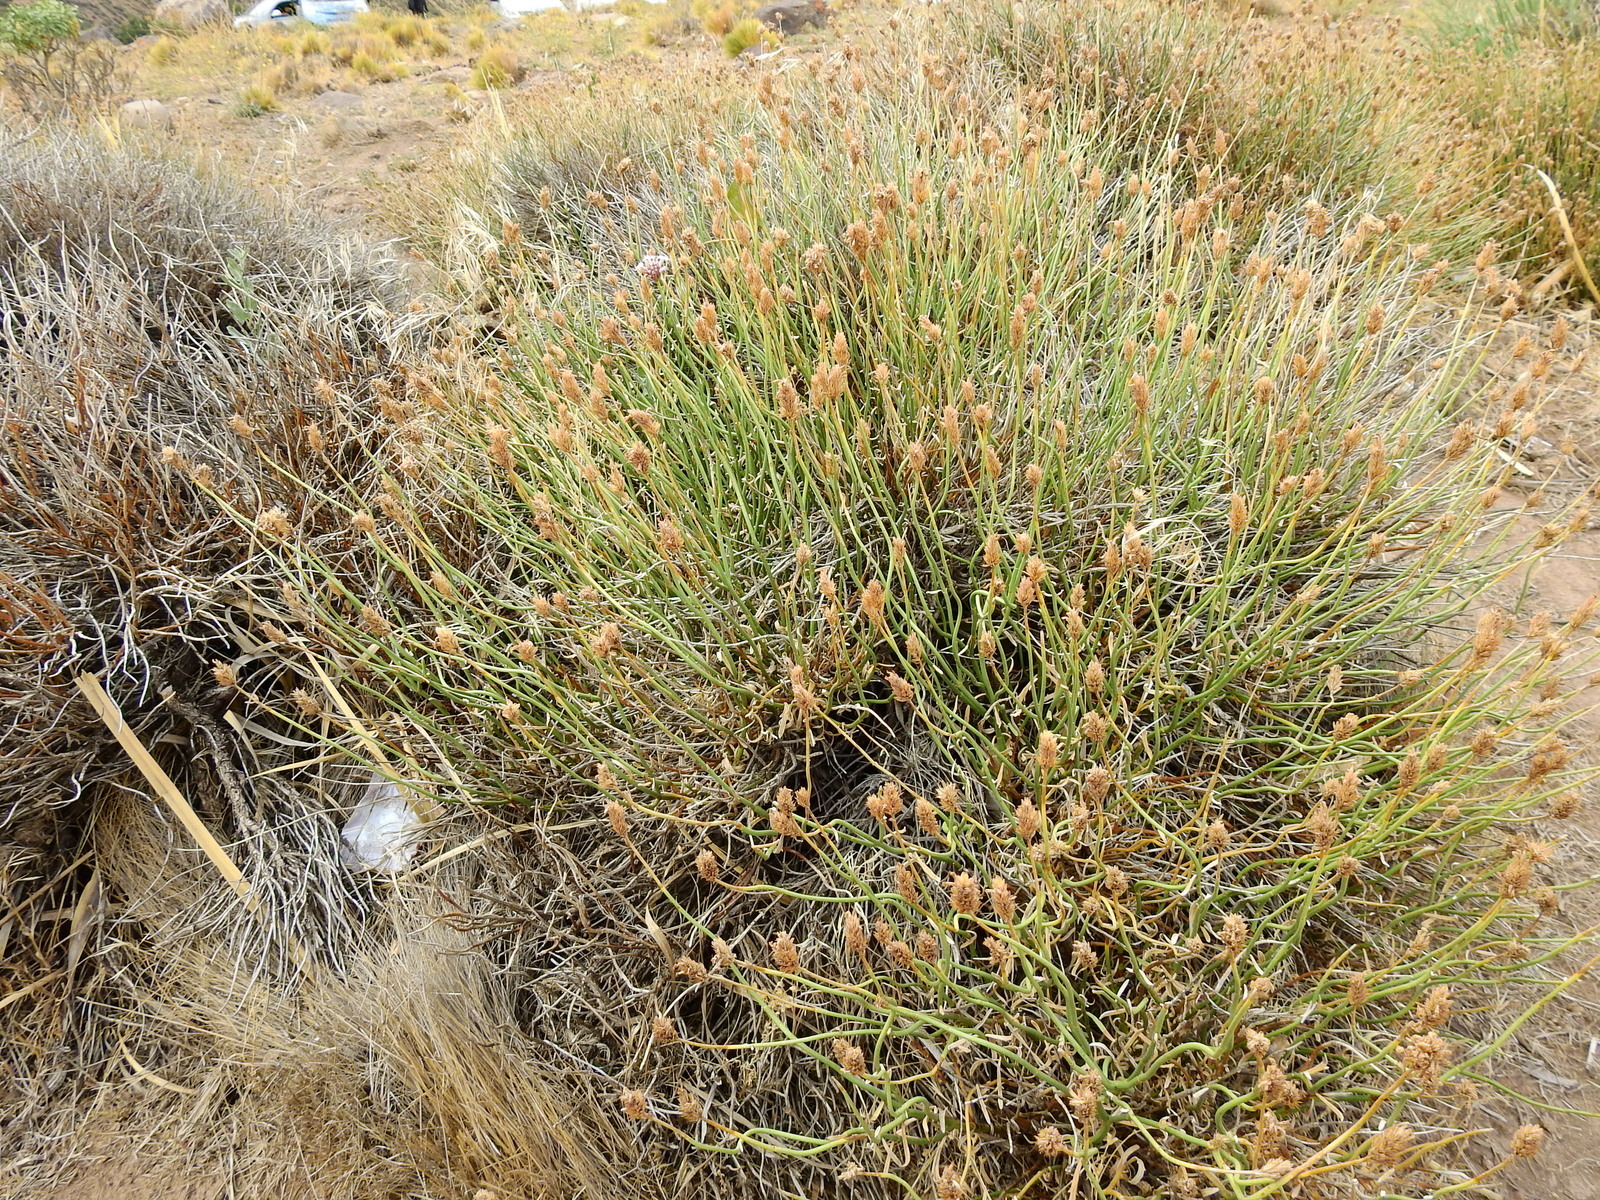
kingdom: Plantae
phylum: Tracheophyta
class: Magnoliopsida
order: Lamiales
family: Verbenaceae
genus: Junellia
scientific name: Junellia spathulata
